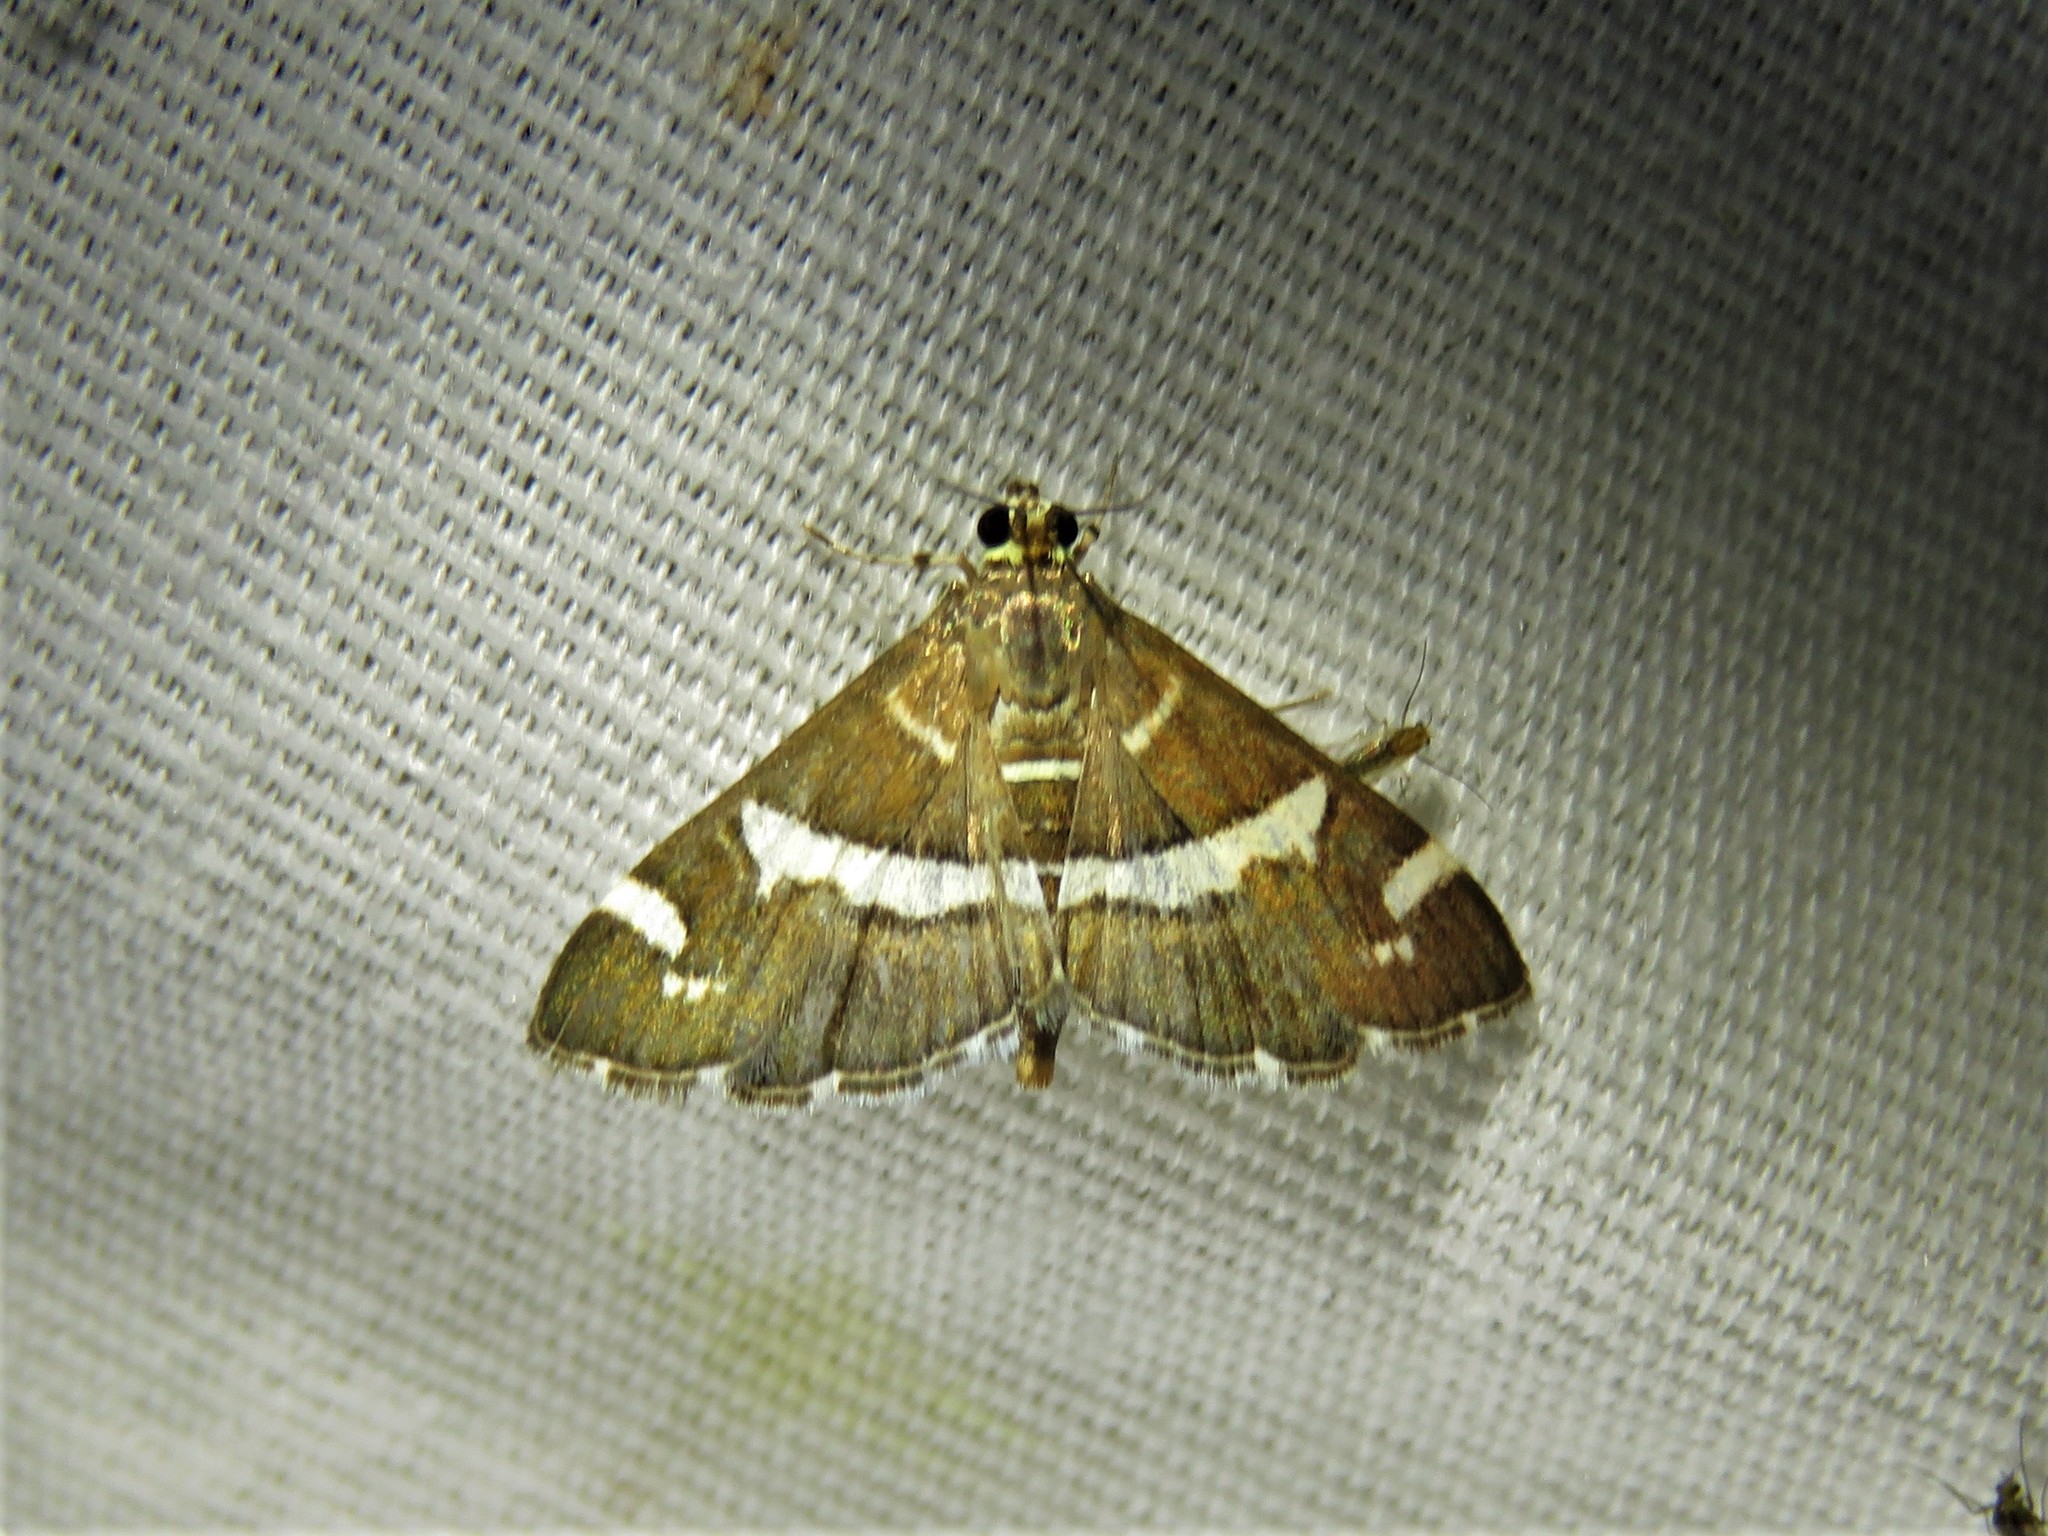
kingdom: Animalia
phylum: Arthropoda
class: Insecta
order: Lepidoptera
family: Crambidae
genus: Spoladea
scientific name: Spoladea recurvalis
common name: Beet webworm moth
